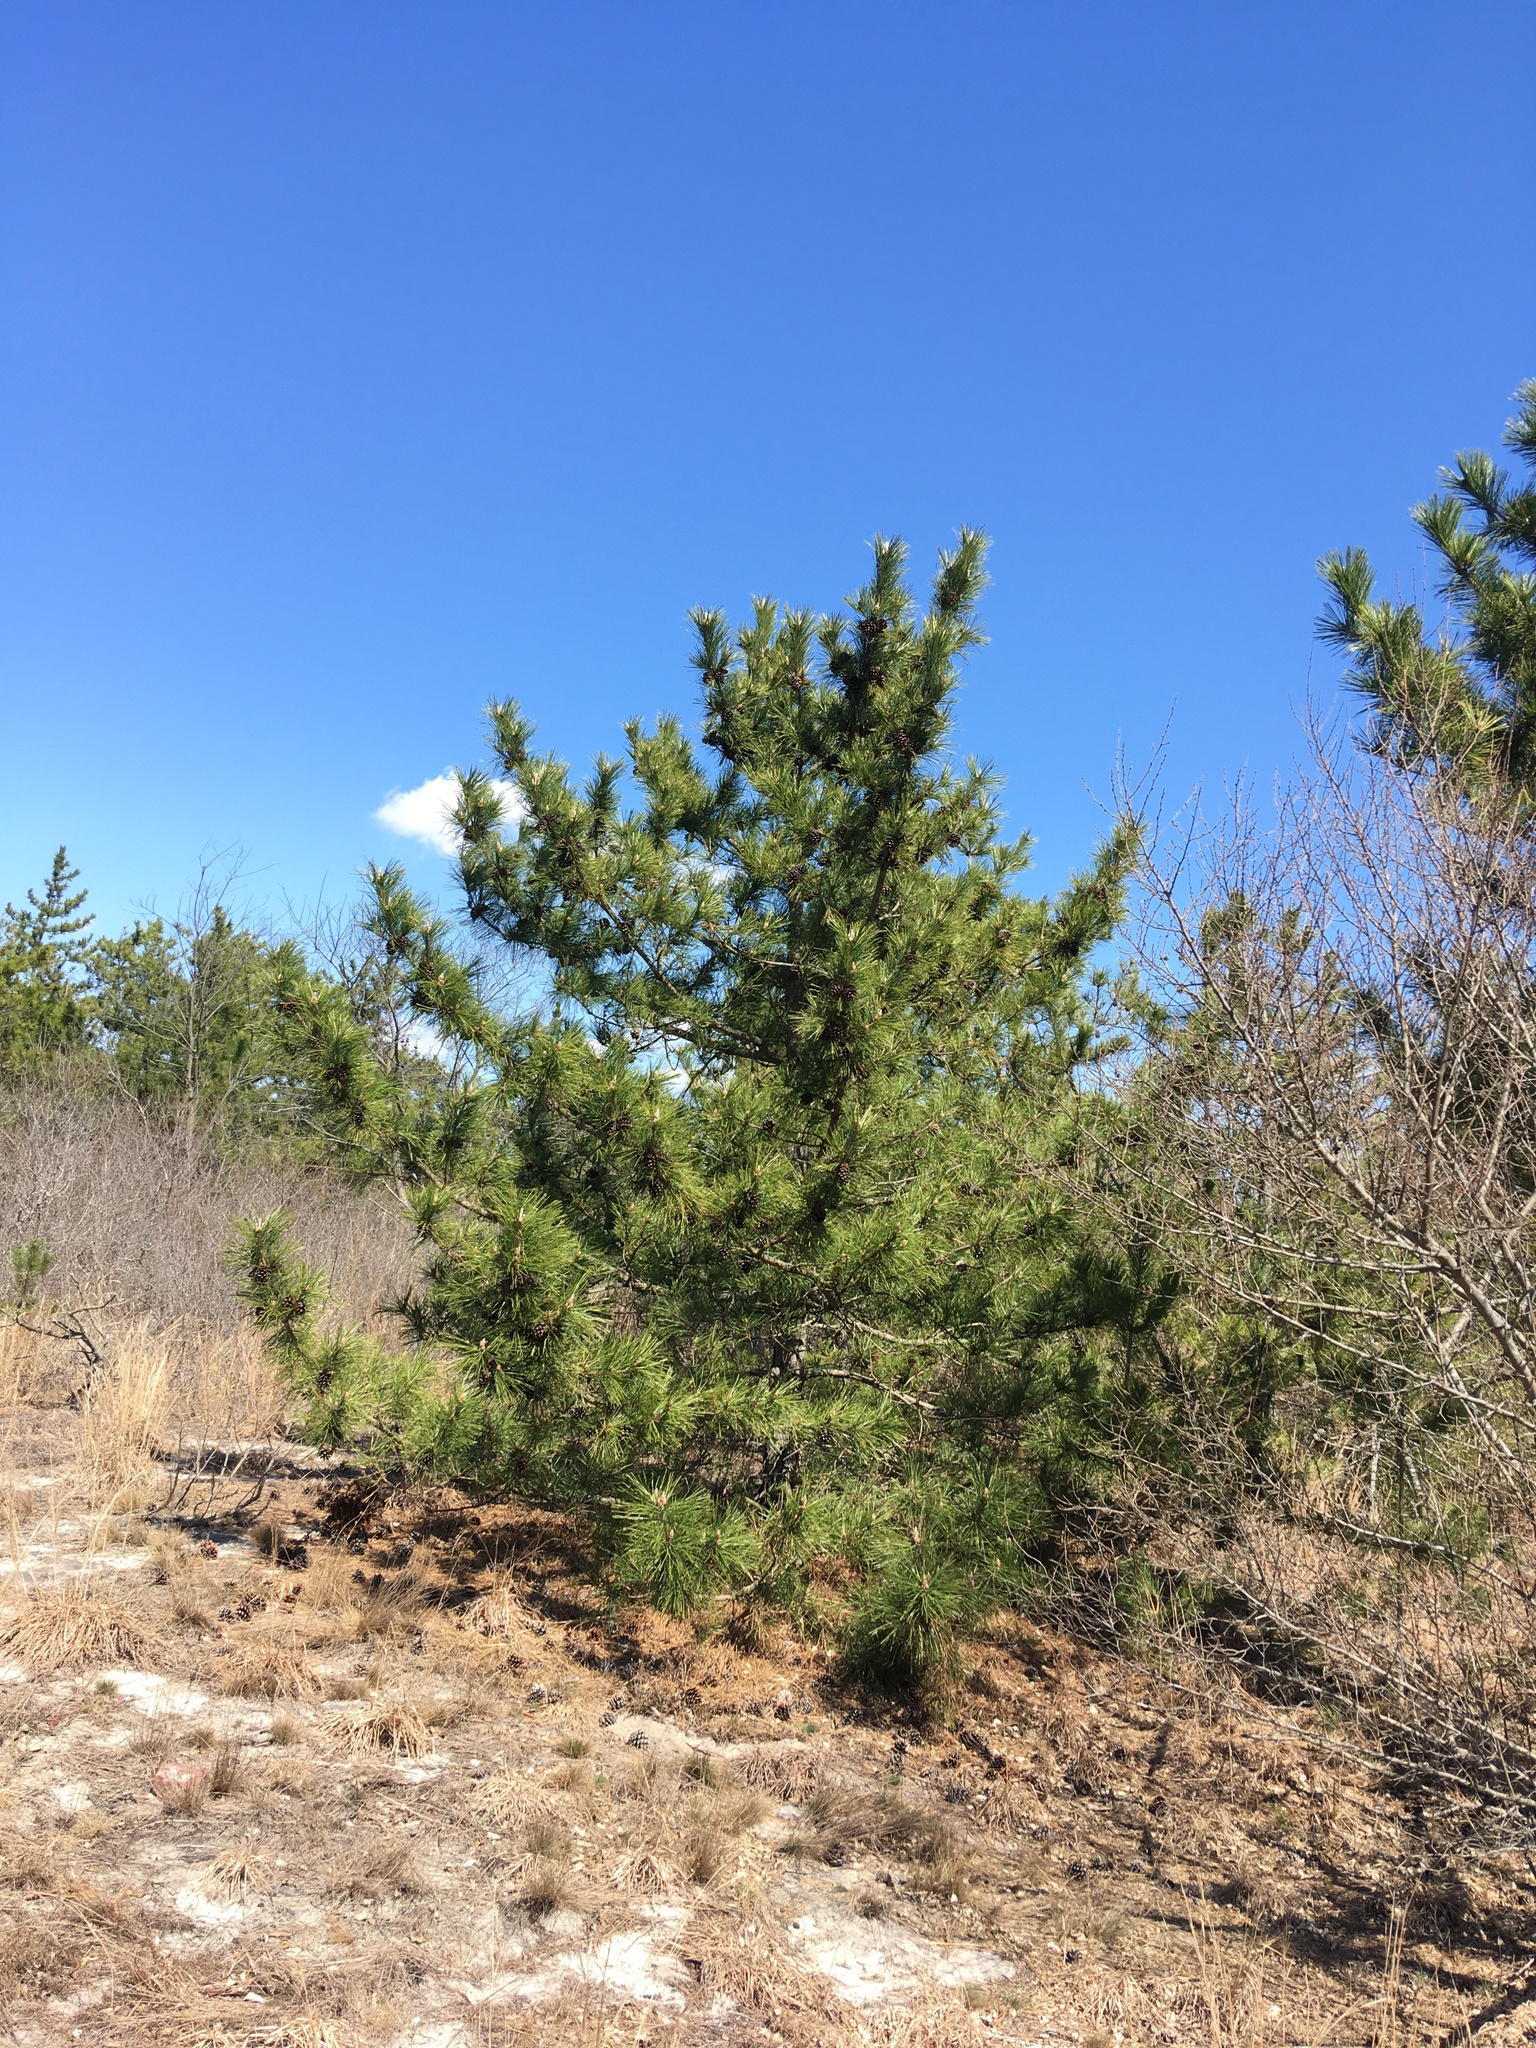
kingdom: Plantae
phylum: Tracheophyta
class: Pinopsida
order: Pinales
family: Pinaceae
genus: Pinus
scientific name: Pinus resinosa
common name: Norway pine
